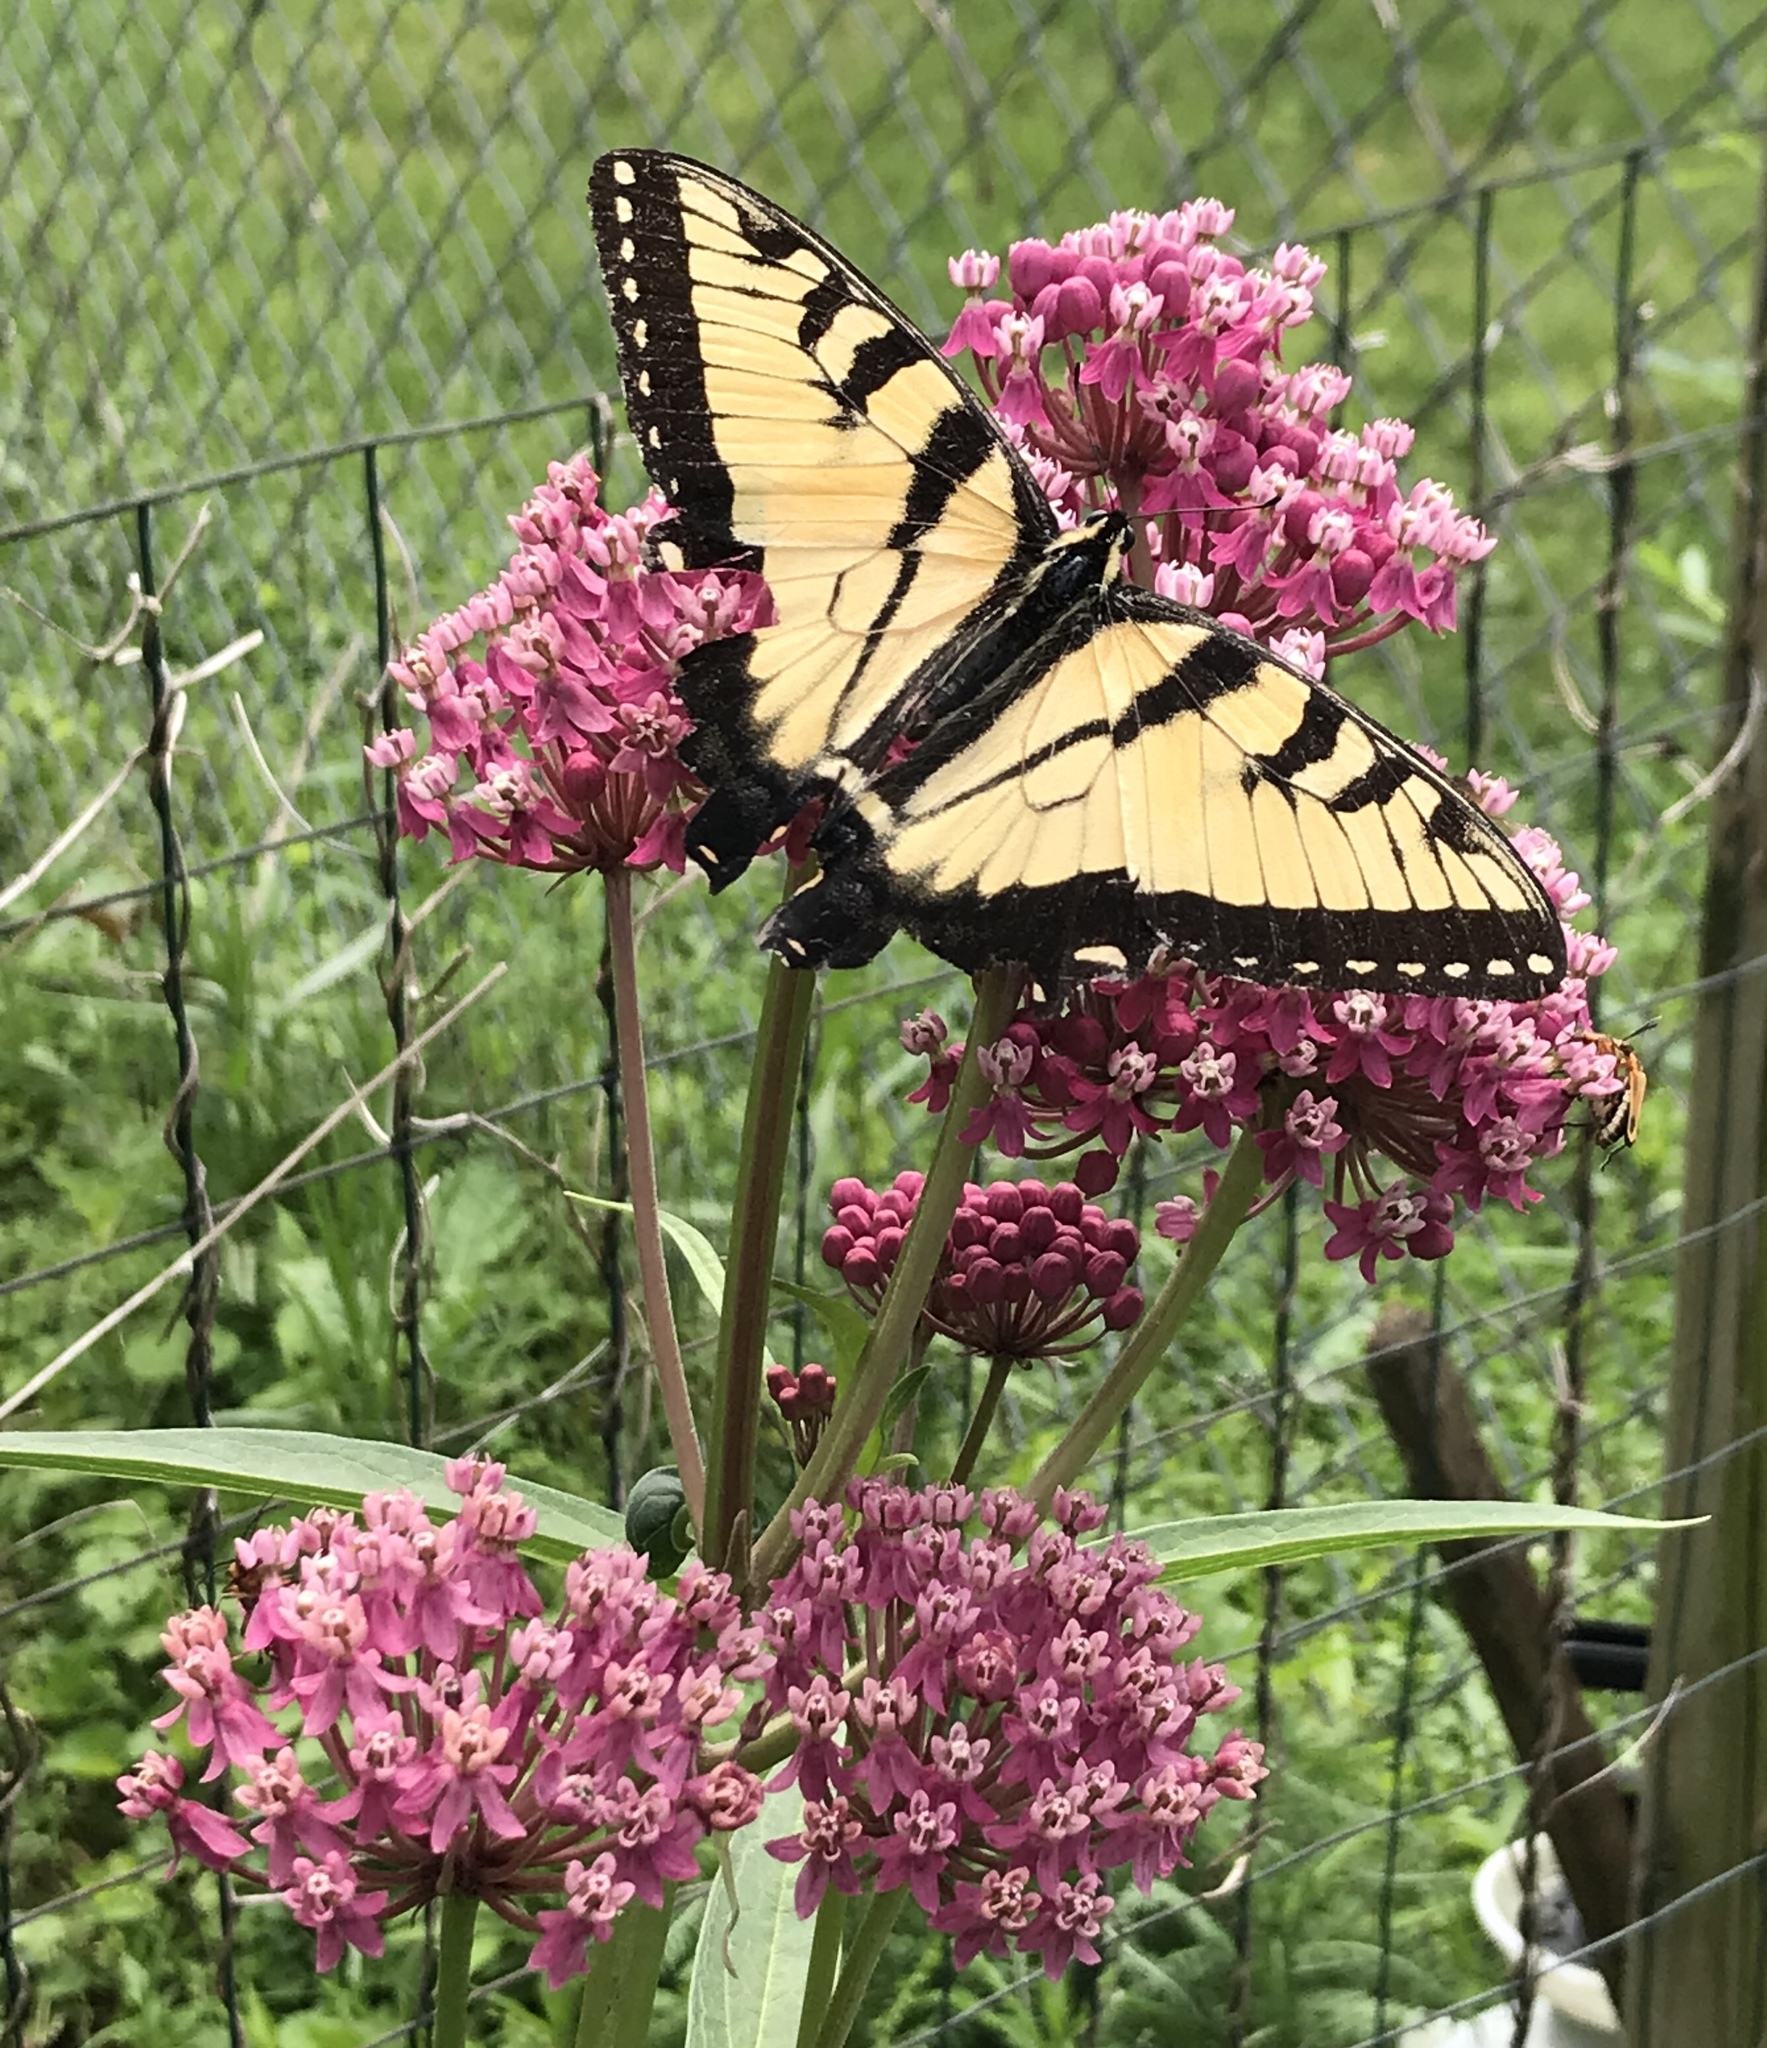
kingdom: Animalia
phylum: Arthropoda
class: Insecta
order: Lepidoptera
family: Papilionidae
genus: Papilio
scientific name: Papilio glaucus
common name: Tiger swallowtail
